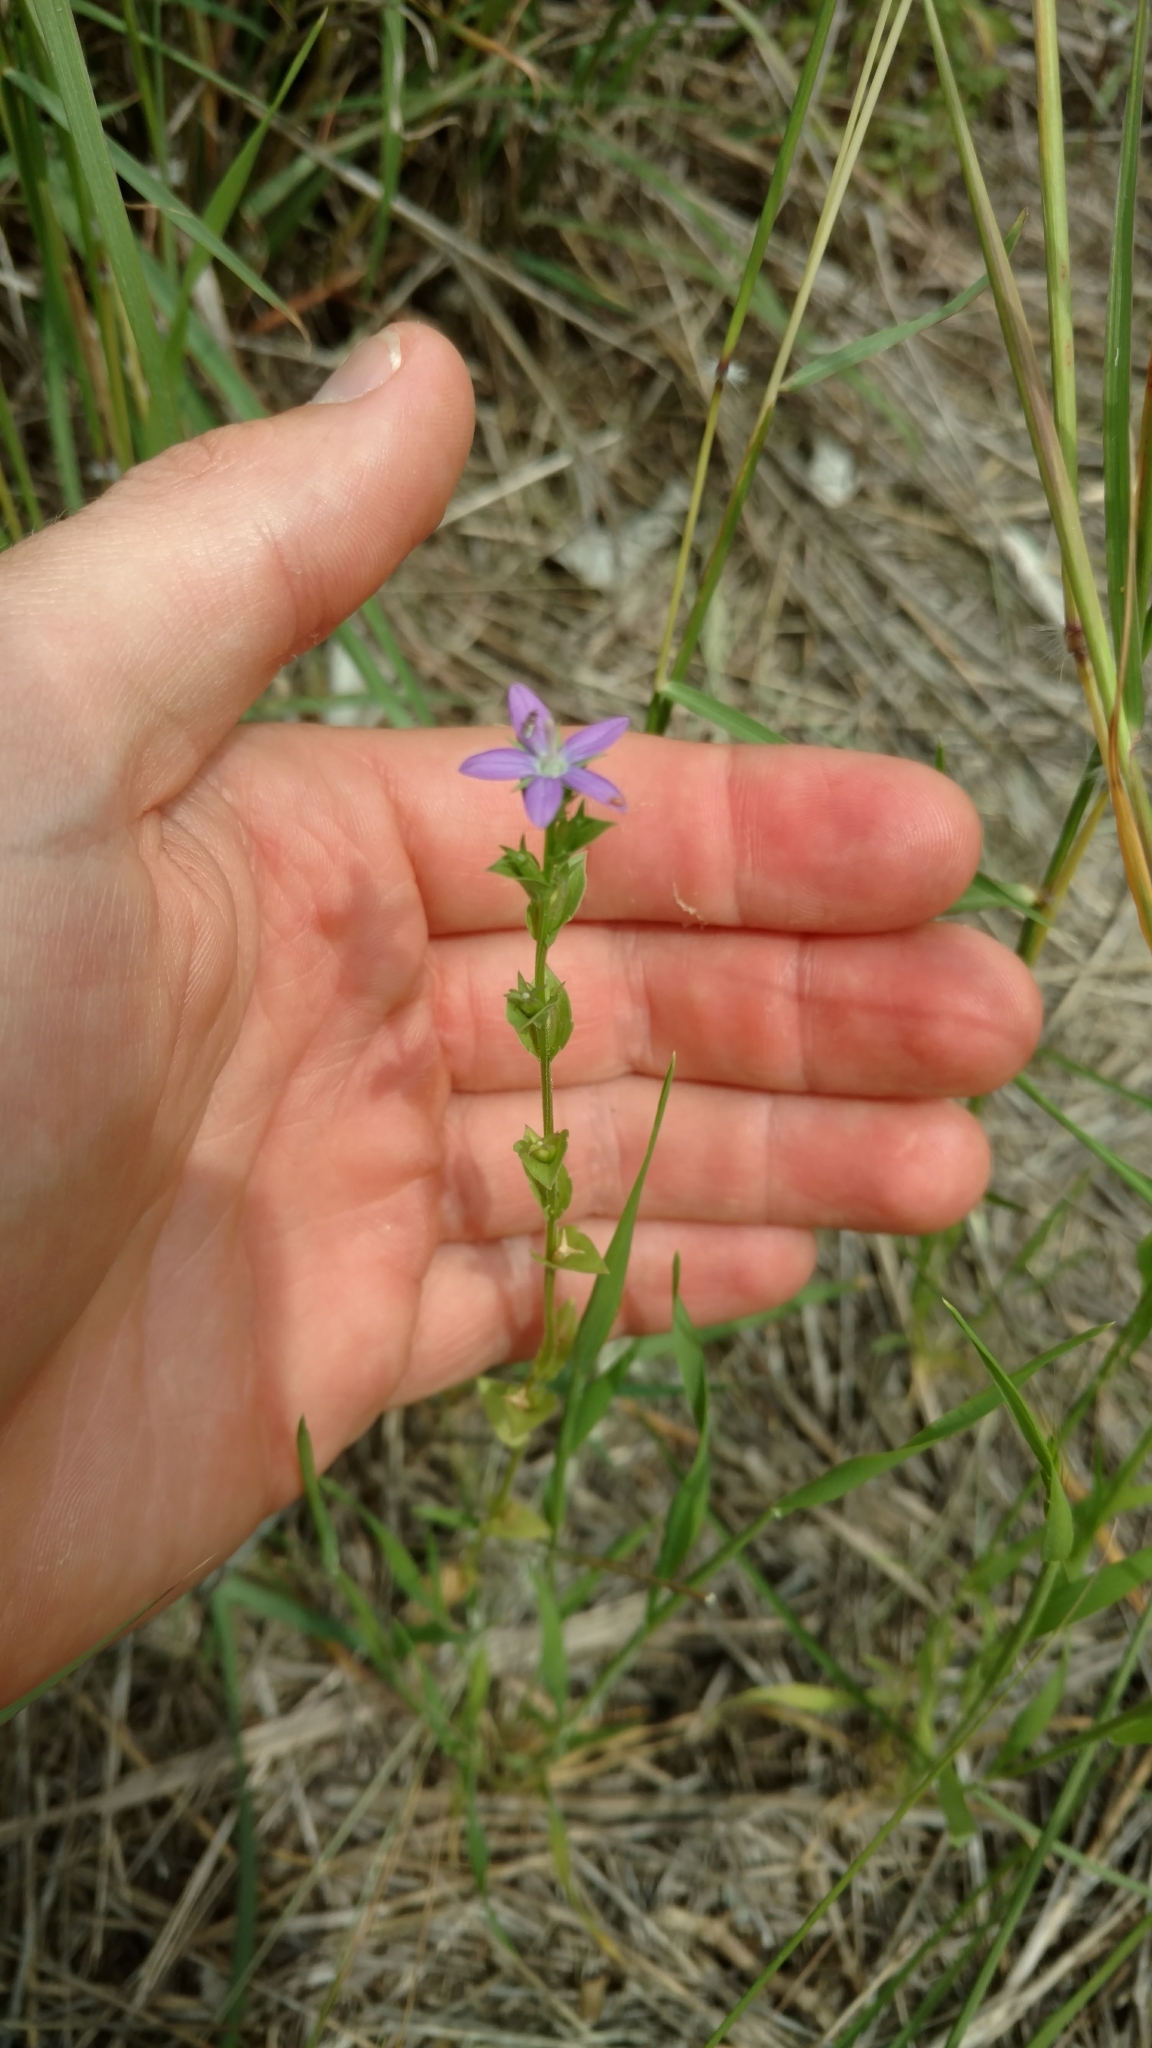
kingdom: Plantae
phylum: Tracheophyta
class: Magnoliopsida
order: Asterales
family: Campanulaceae
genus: Triodanis
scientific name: Triodanis perfoliata
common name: Clasping venus' looking-glass
